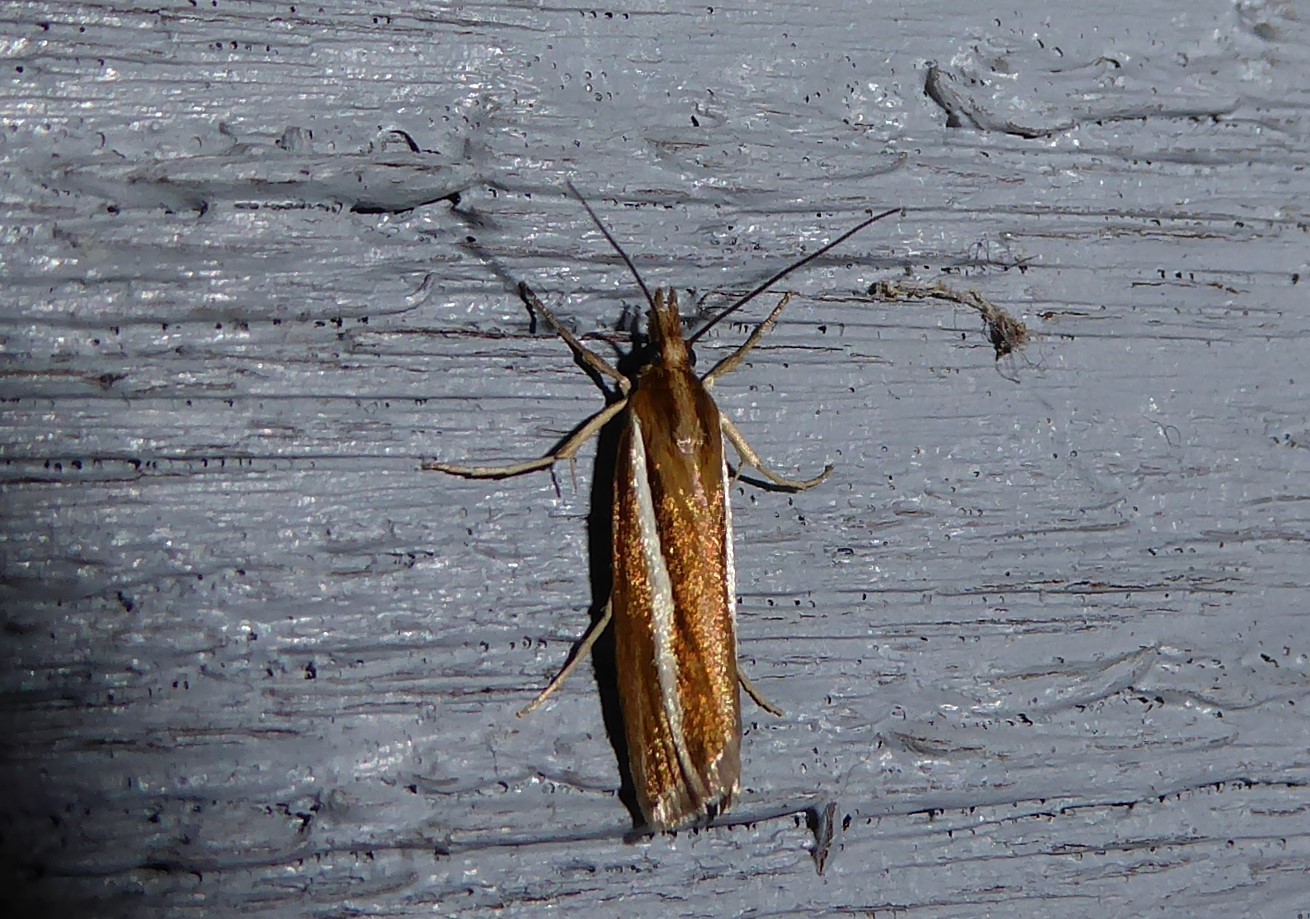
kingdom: Animalia
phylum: Arthropoda
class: Insecta
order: Lepidoptera
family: Crambidae
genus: Orocrambus
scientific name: Orocrambus aethonellus
